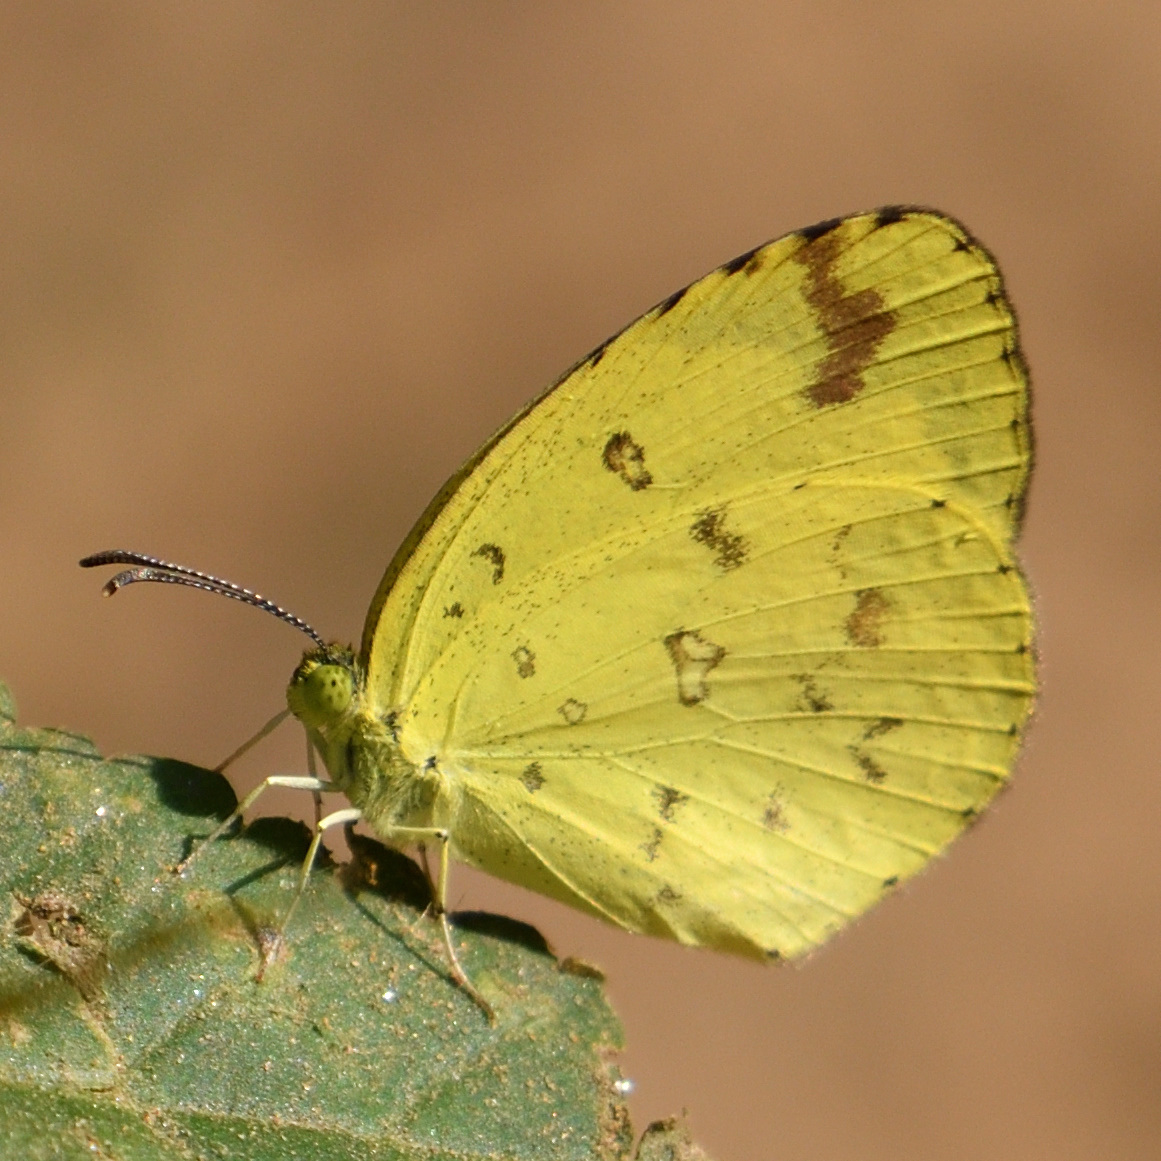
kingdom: Animalia
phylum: Arthropoda
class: Insecta
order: Lepidoptera
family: Pieridae
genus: Eurema
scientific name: Eurema hecabe
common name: Pale grass yellow
